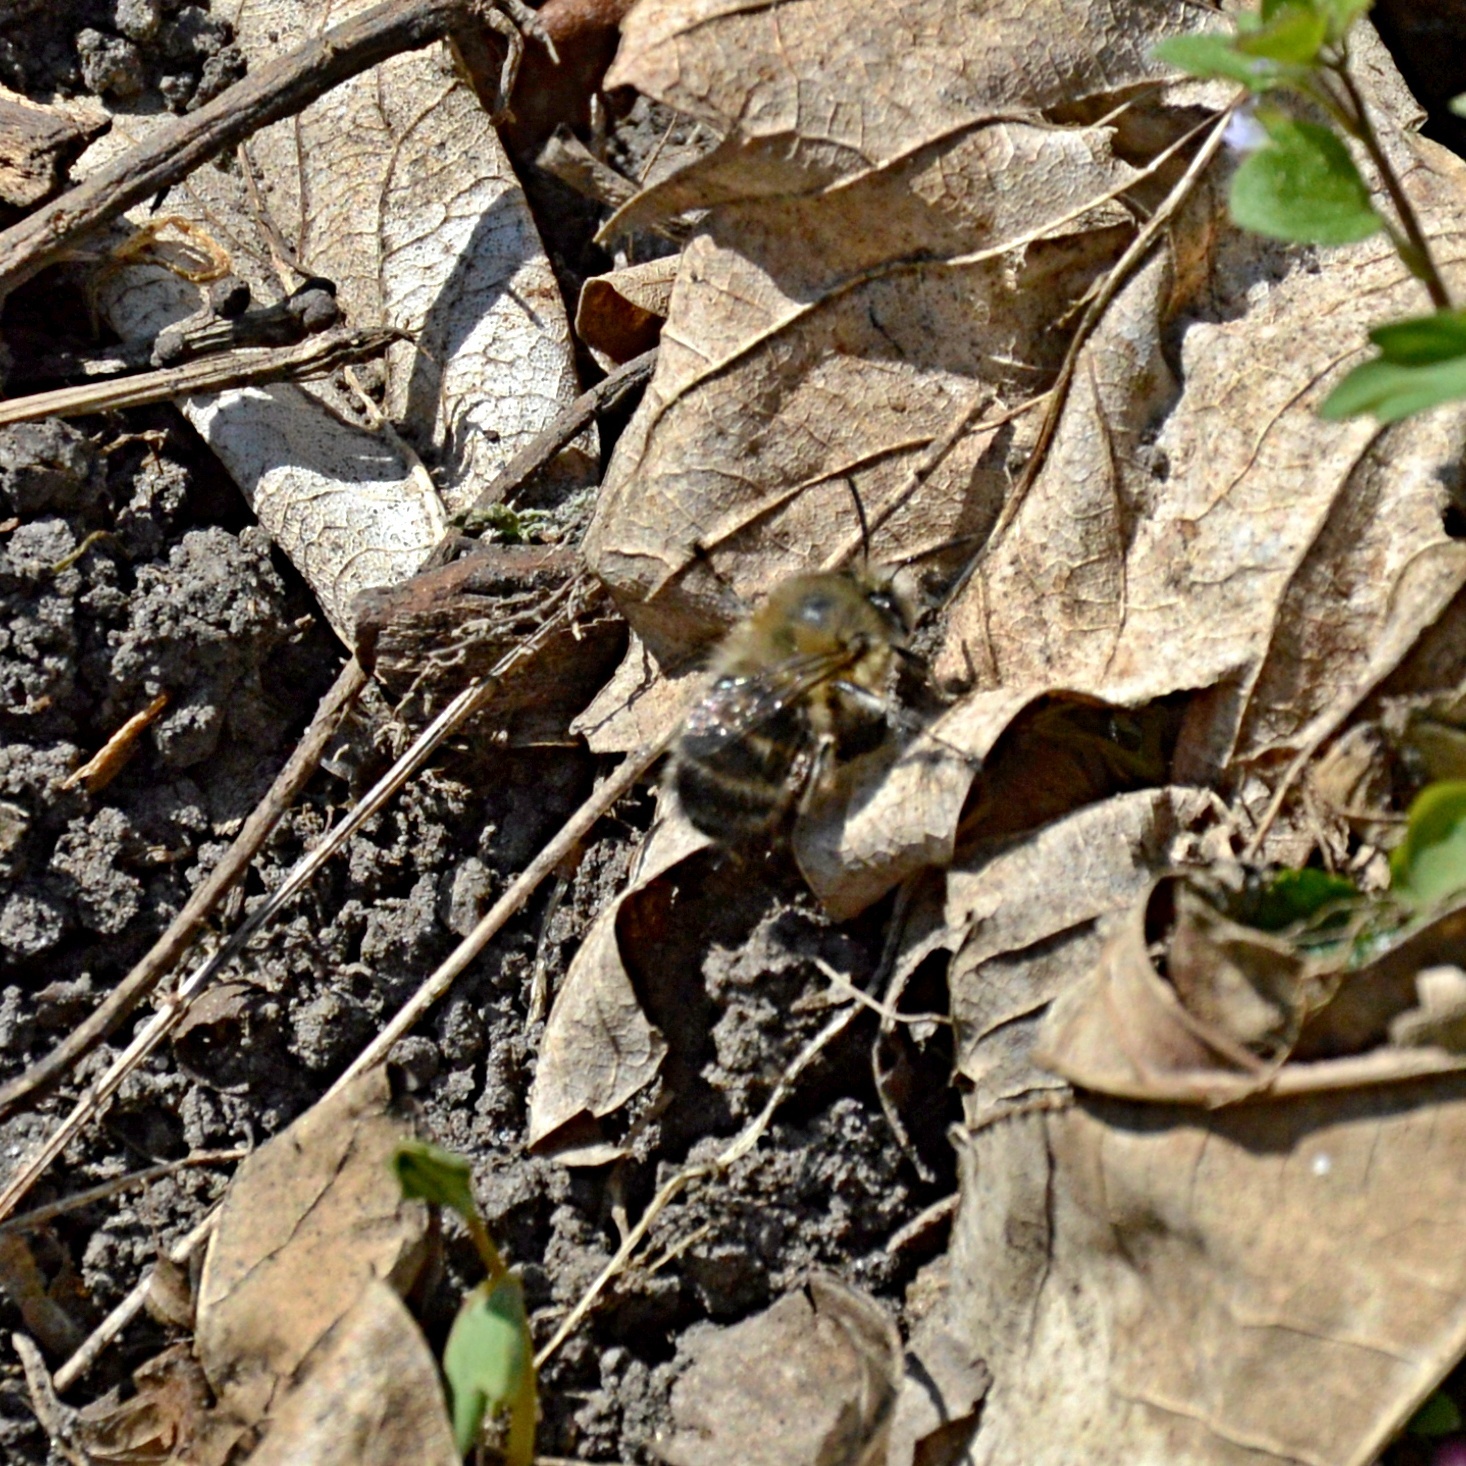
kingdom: Animalia
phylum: Arthropoda
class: Insecta
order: Hymenoptera
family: Apidae
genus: Anthophora
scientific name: Anthophora plumipes
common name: Hairy-footed flower bee
